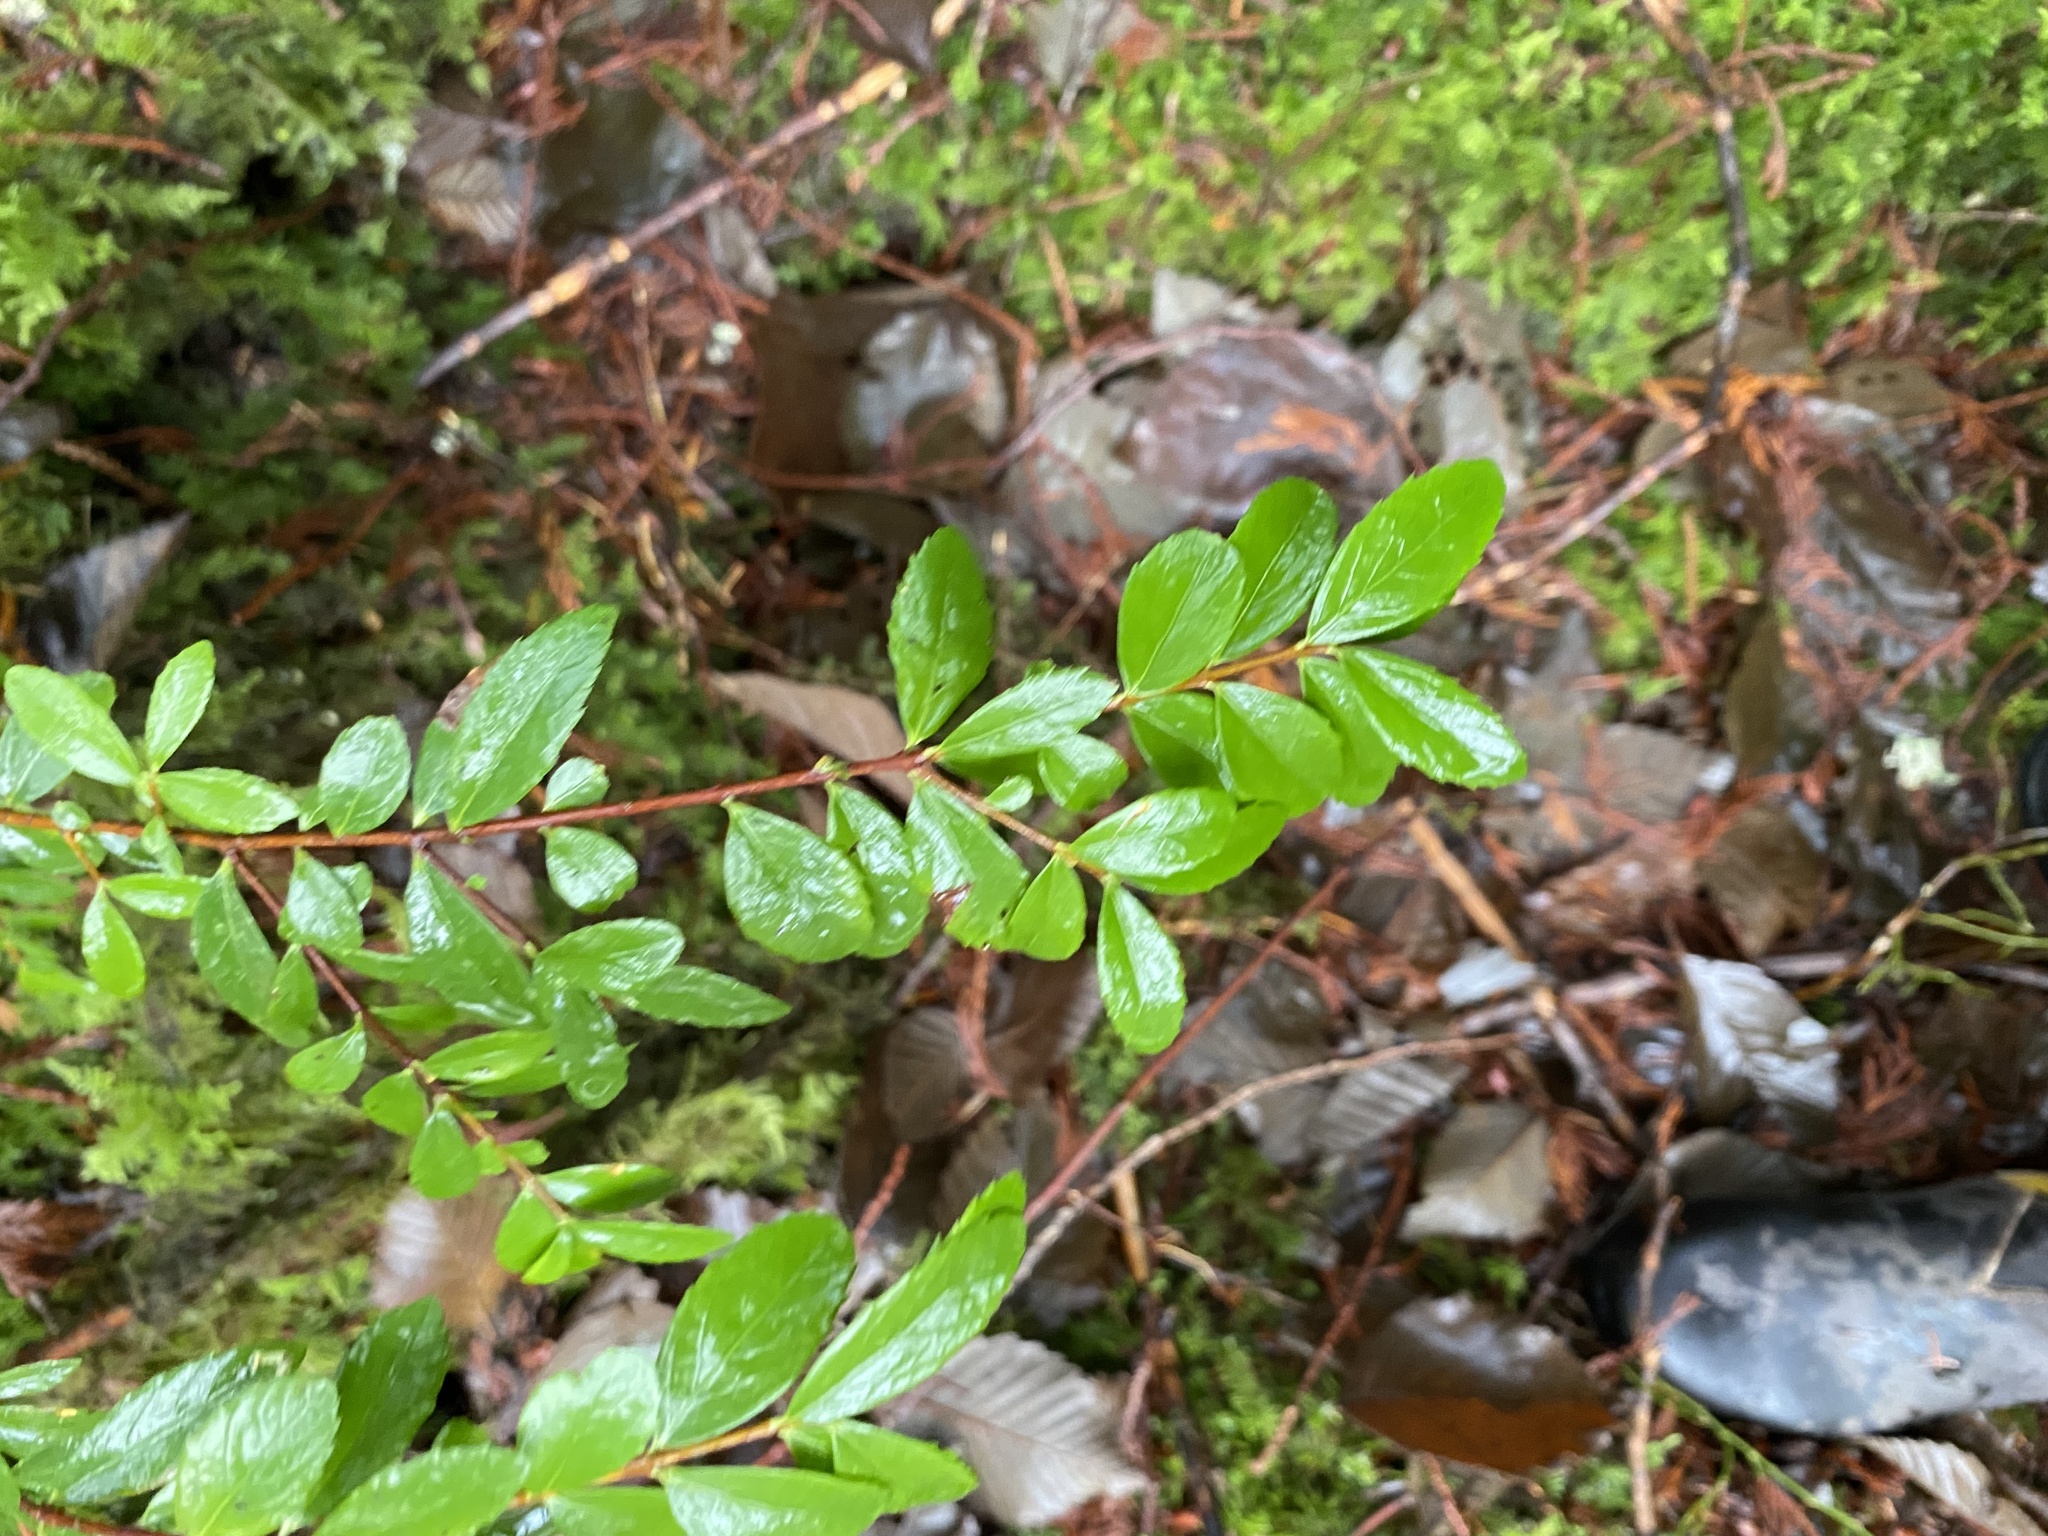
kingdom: Plantae
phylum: Tracheophyta
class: Magnoliopsida
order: Celastrales
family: Celastraceae
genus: Paxistima
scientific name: Paxistima myrsinites
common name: Mountain-lover
